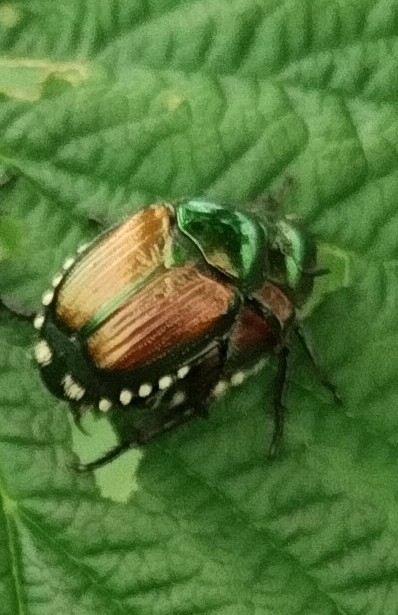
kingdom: Animalia
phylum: Arthropoda
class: Insecta
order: Coleoptera
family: Scarabaeidae
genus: Popillia
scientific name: Popillia japonica
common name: Japanese beetle
